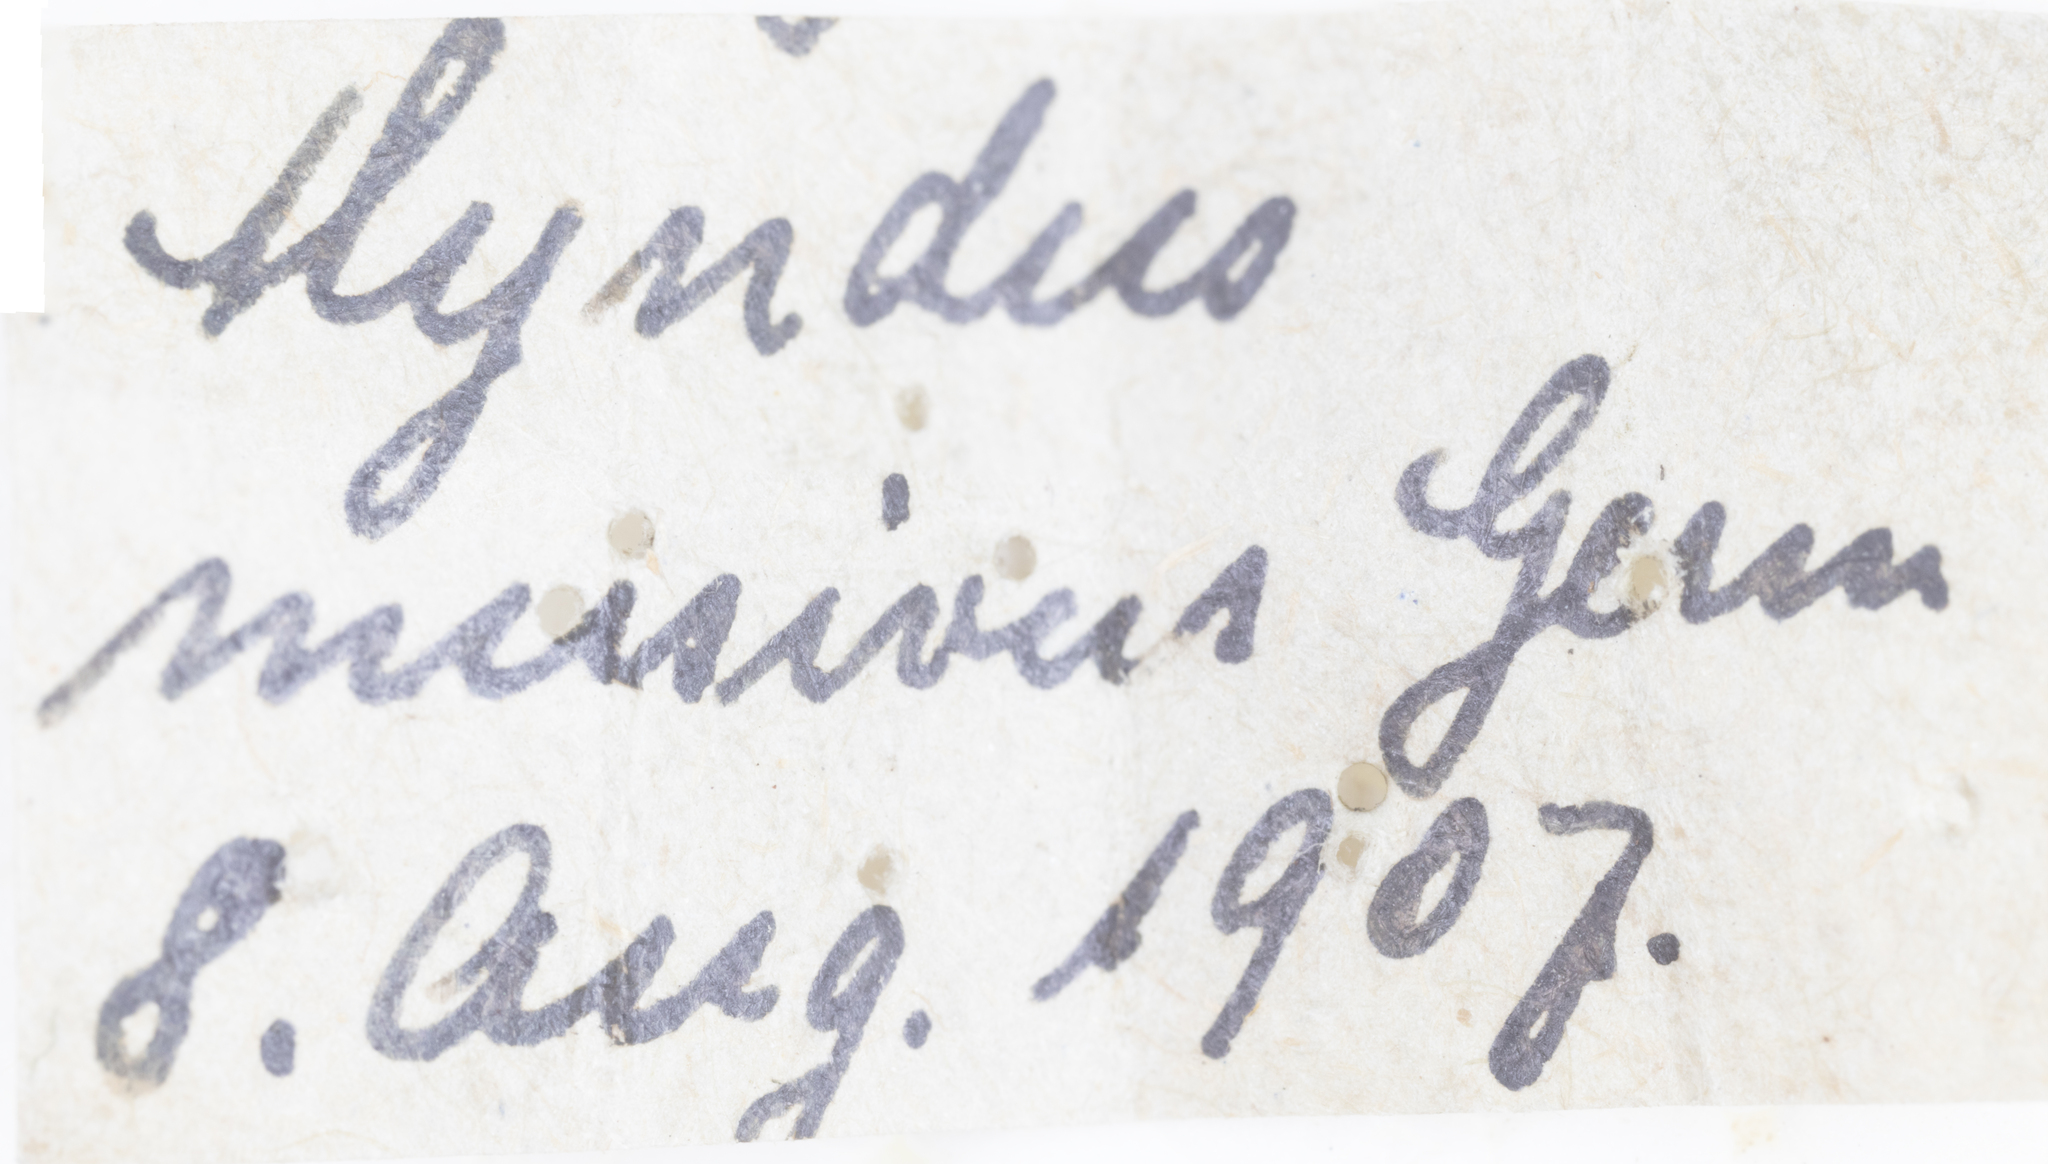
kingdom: Animalia
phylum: Arthropoda
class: Insecta
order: Hemiptera
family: Cixiidae
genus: Entithena
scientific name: Entithena musiva
